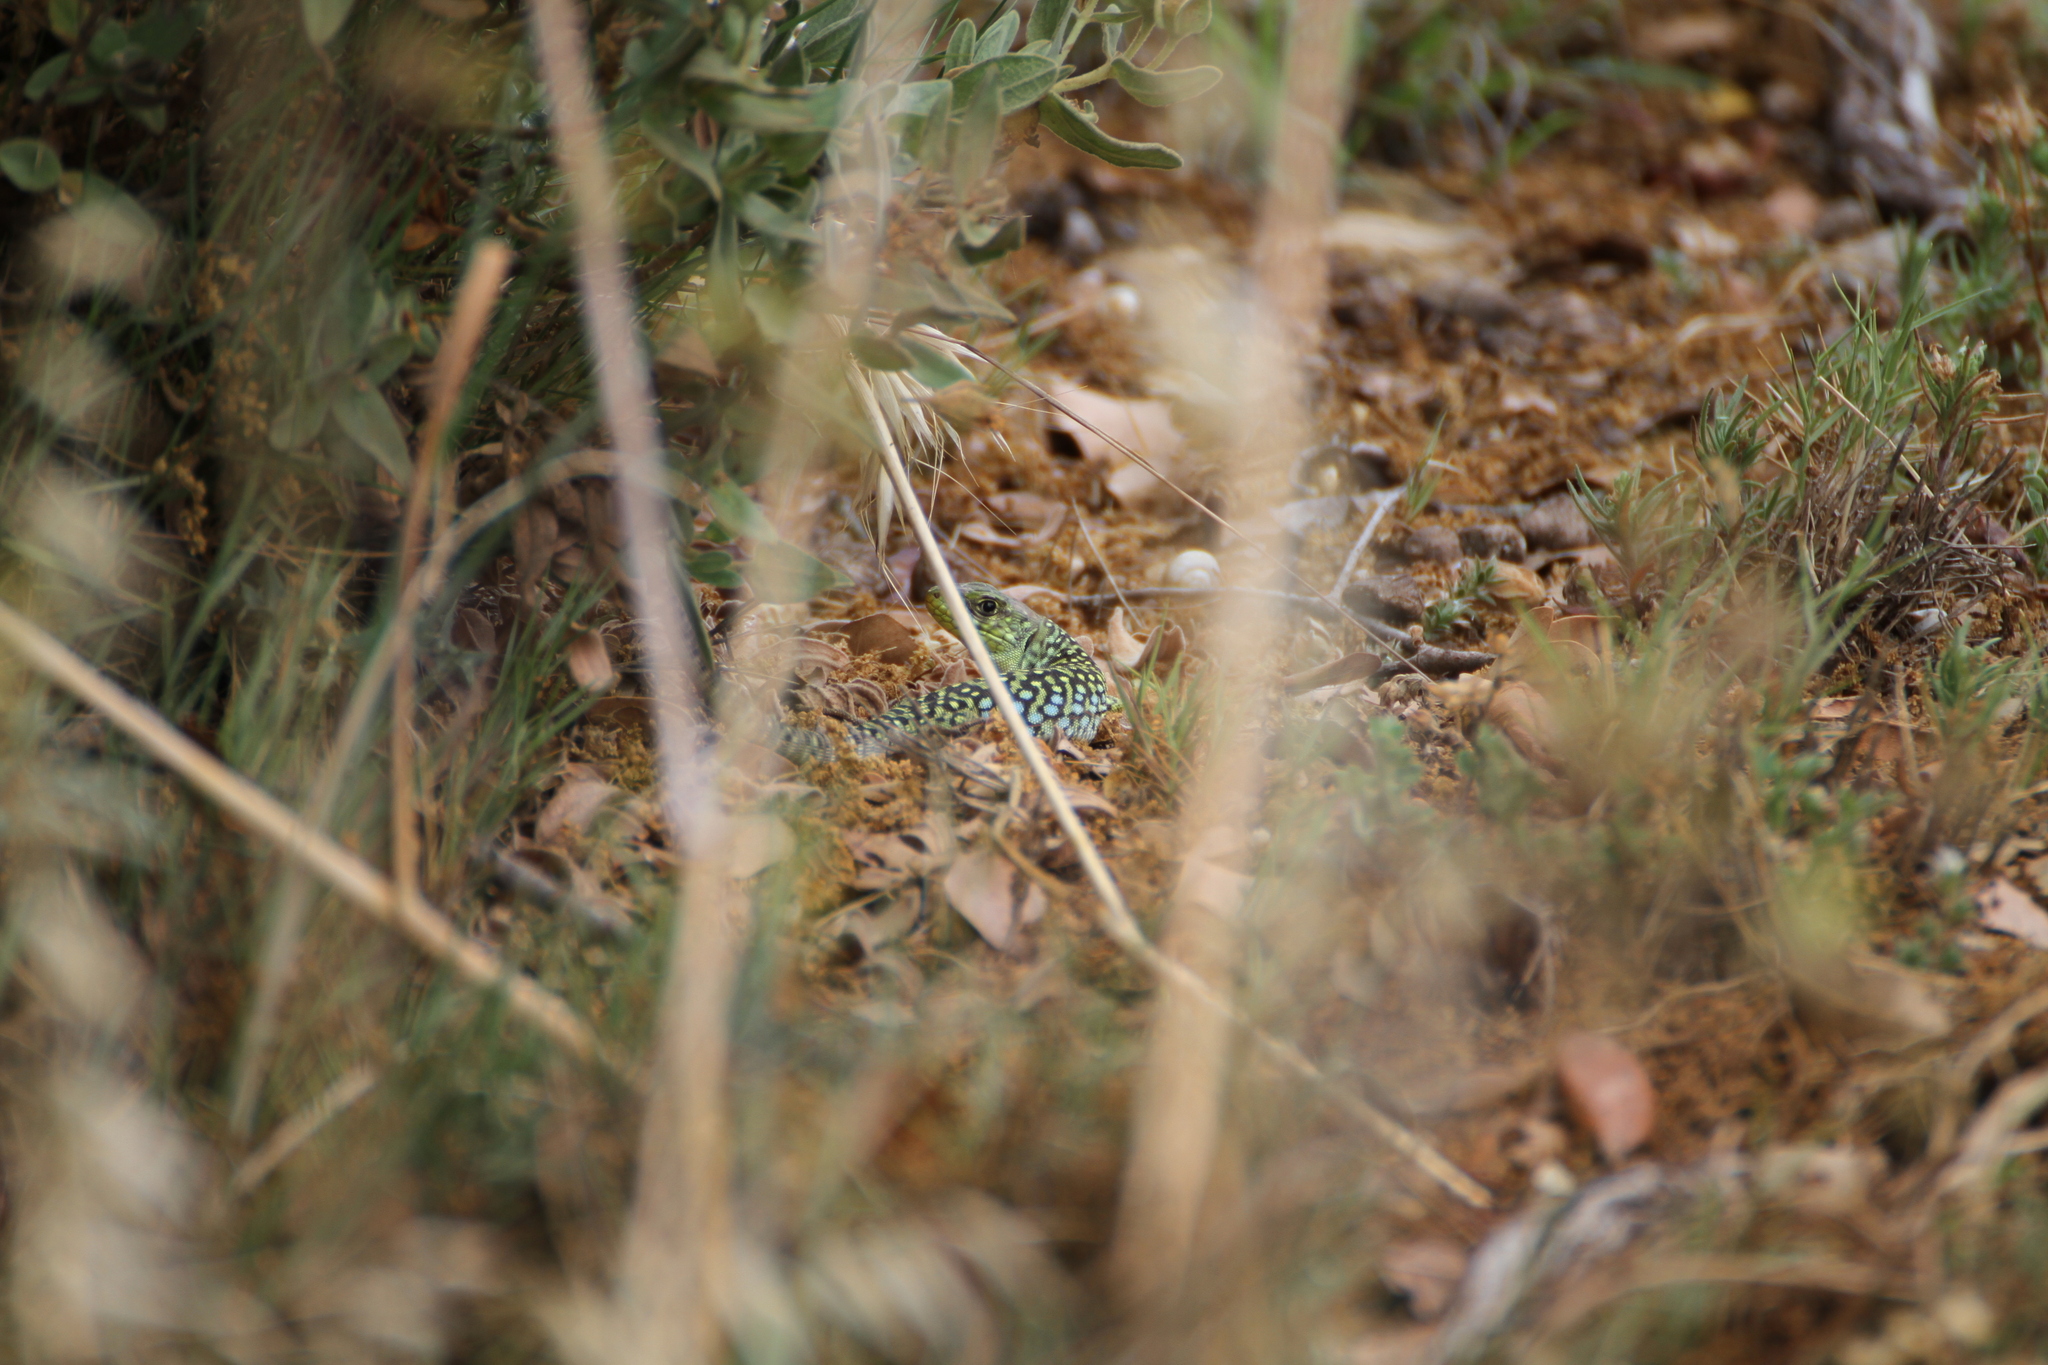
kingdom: Animalia
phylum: Chordata
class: Squamata
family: Lacertidae
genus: Timon
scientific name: Timon lepidus
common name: Ocellated lizard
